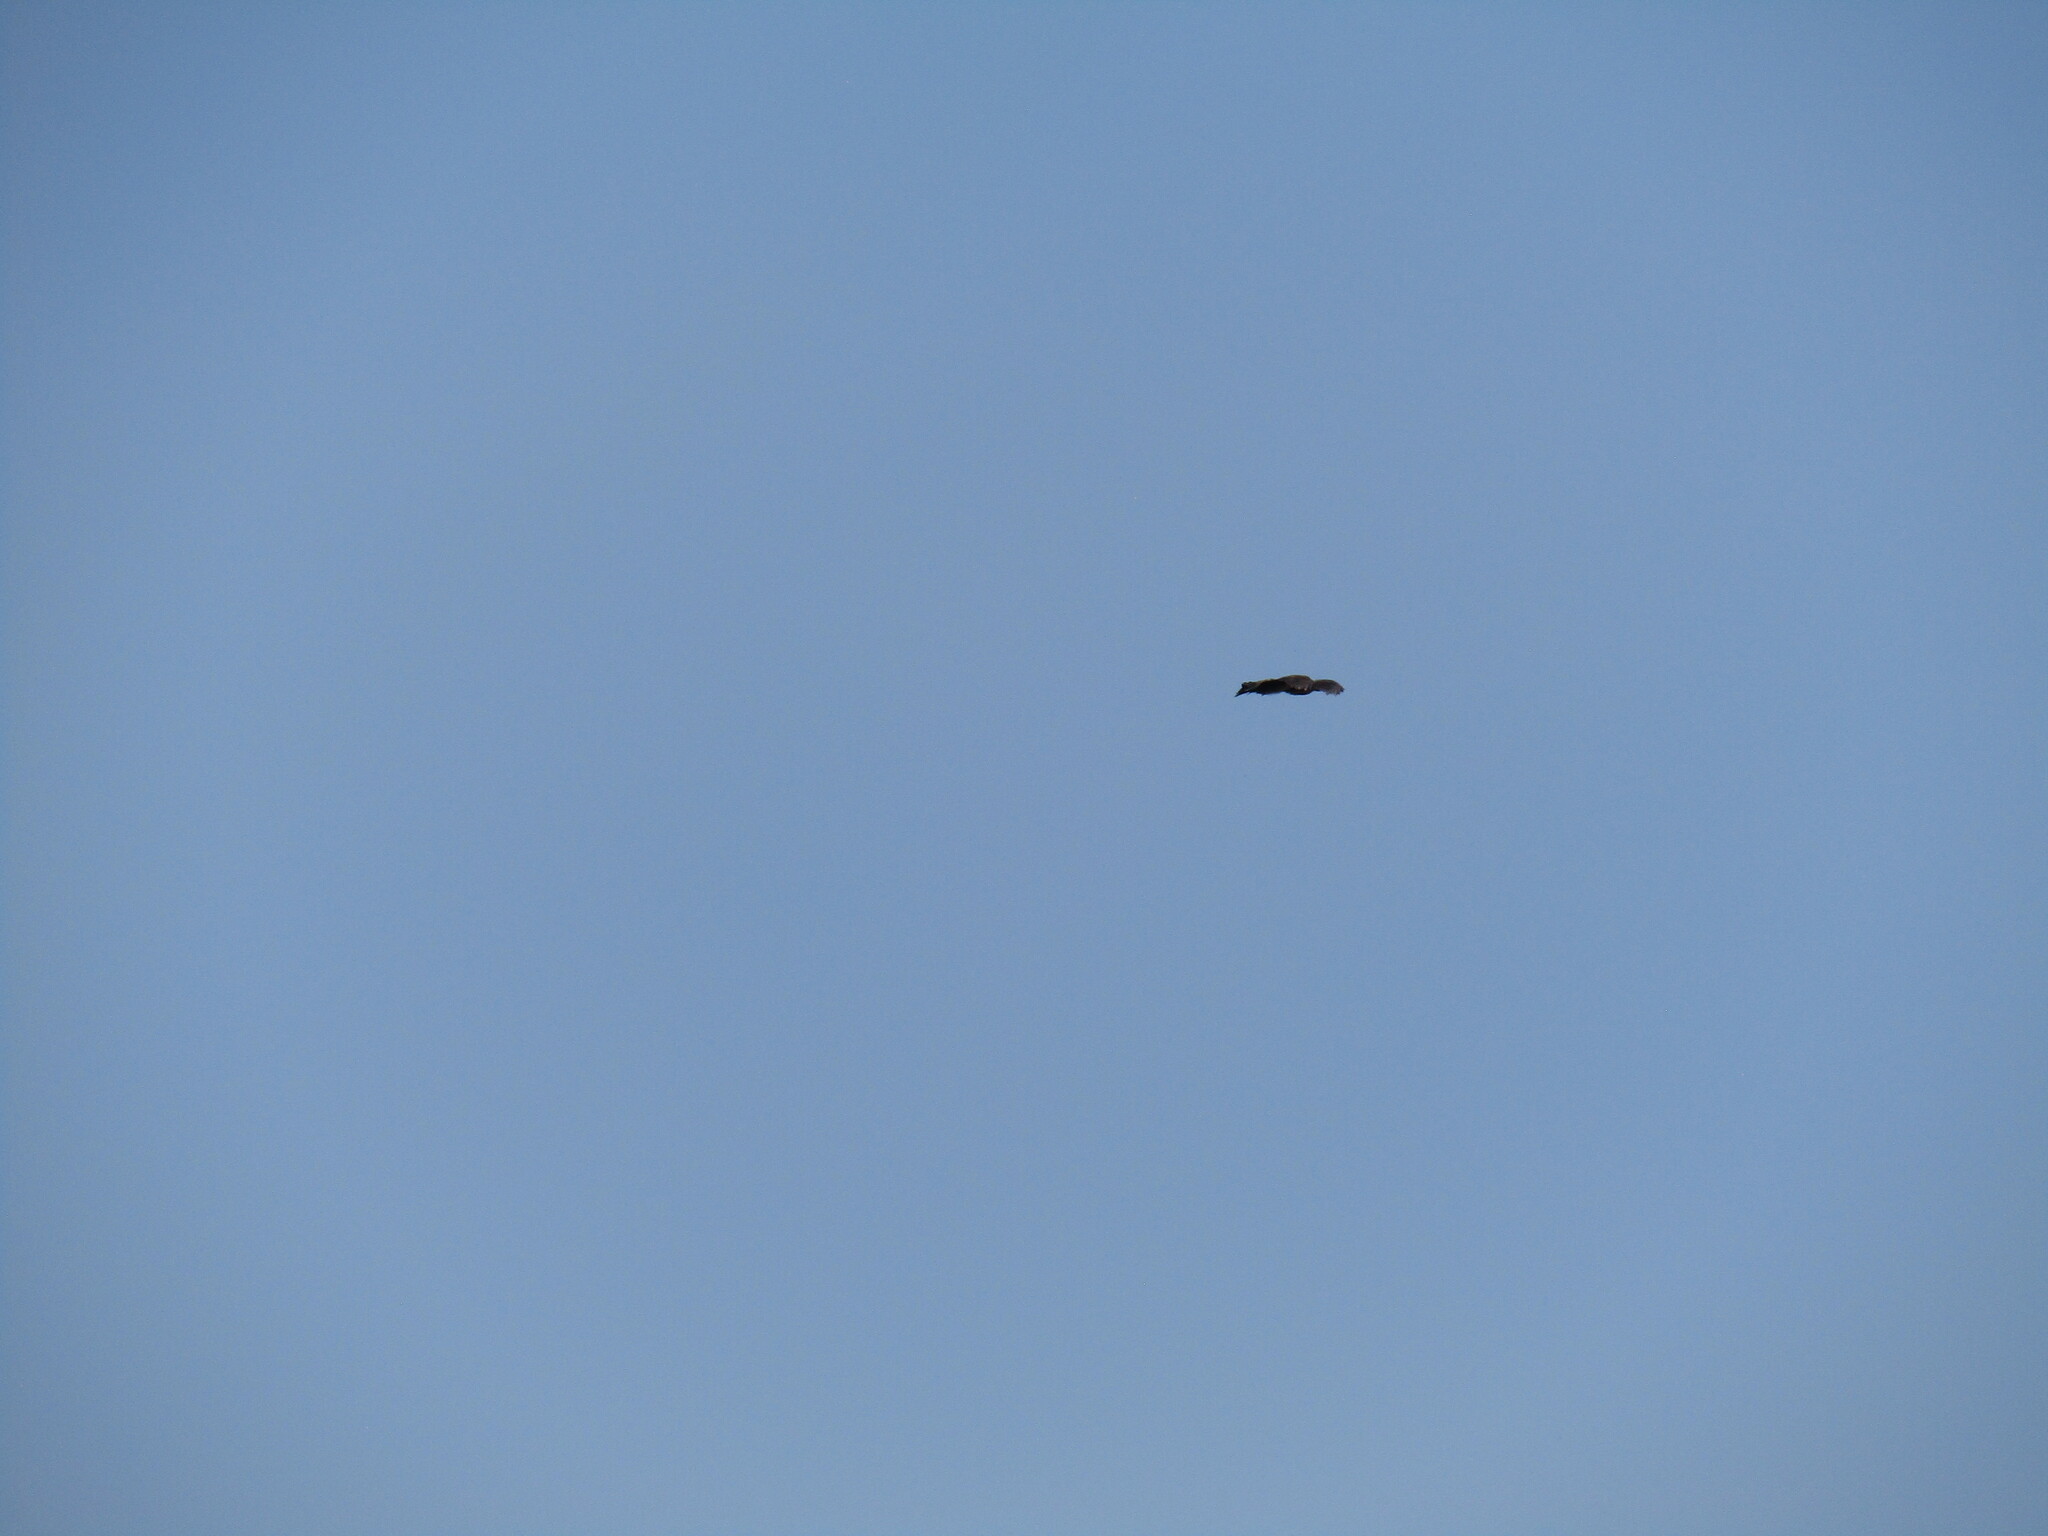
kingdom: Animalia
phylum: Chordata
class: Aves
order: Pelecaniformes
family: Threskiornithidae
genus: Bostrychia
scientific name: Bostrychia hagedash
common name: Hadada ibis
